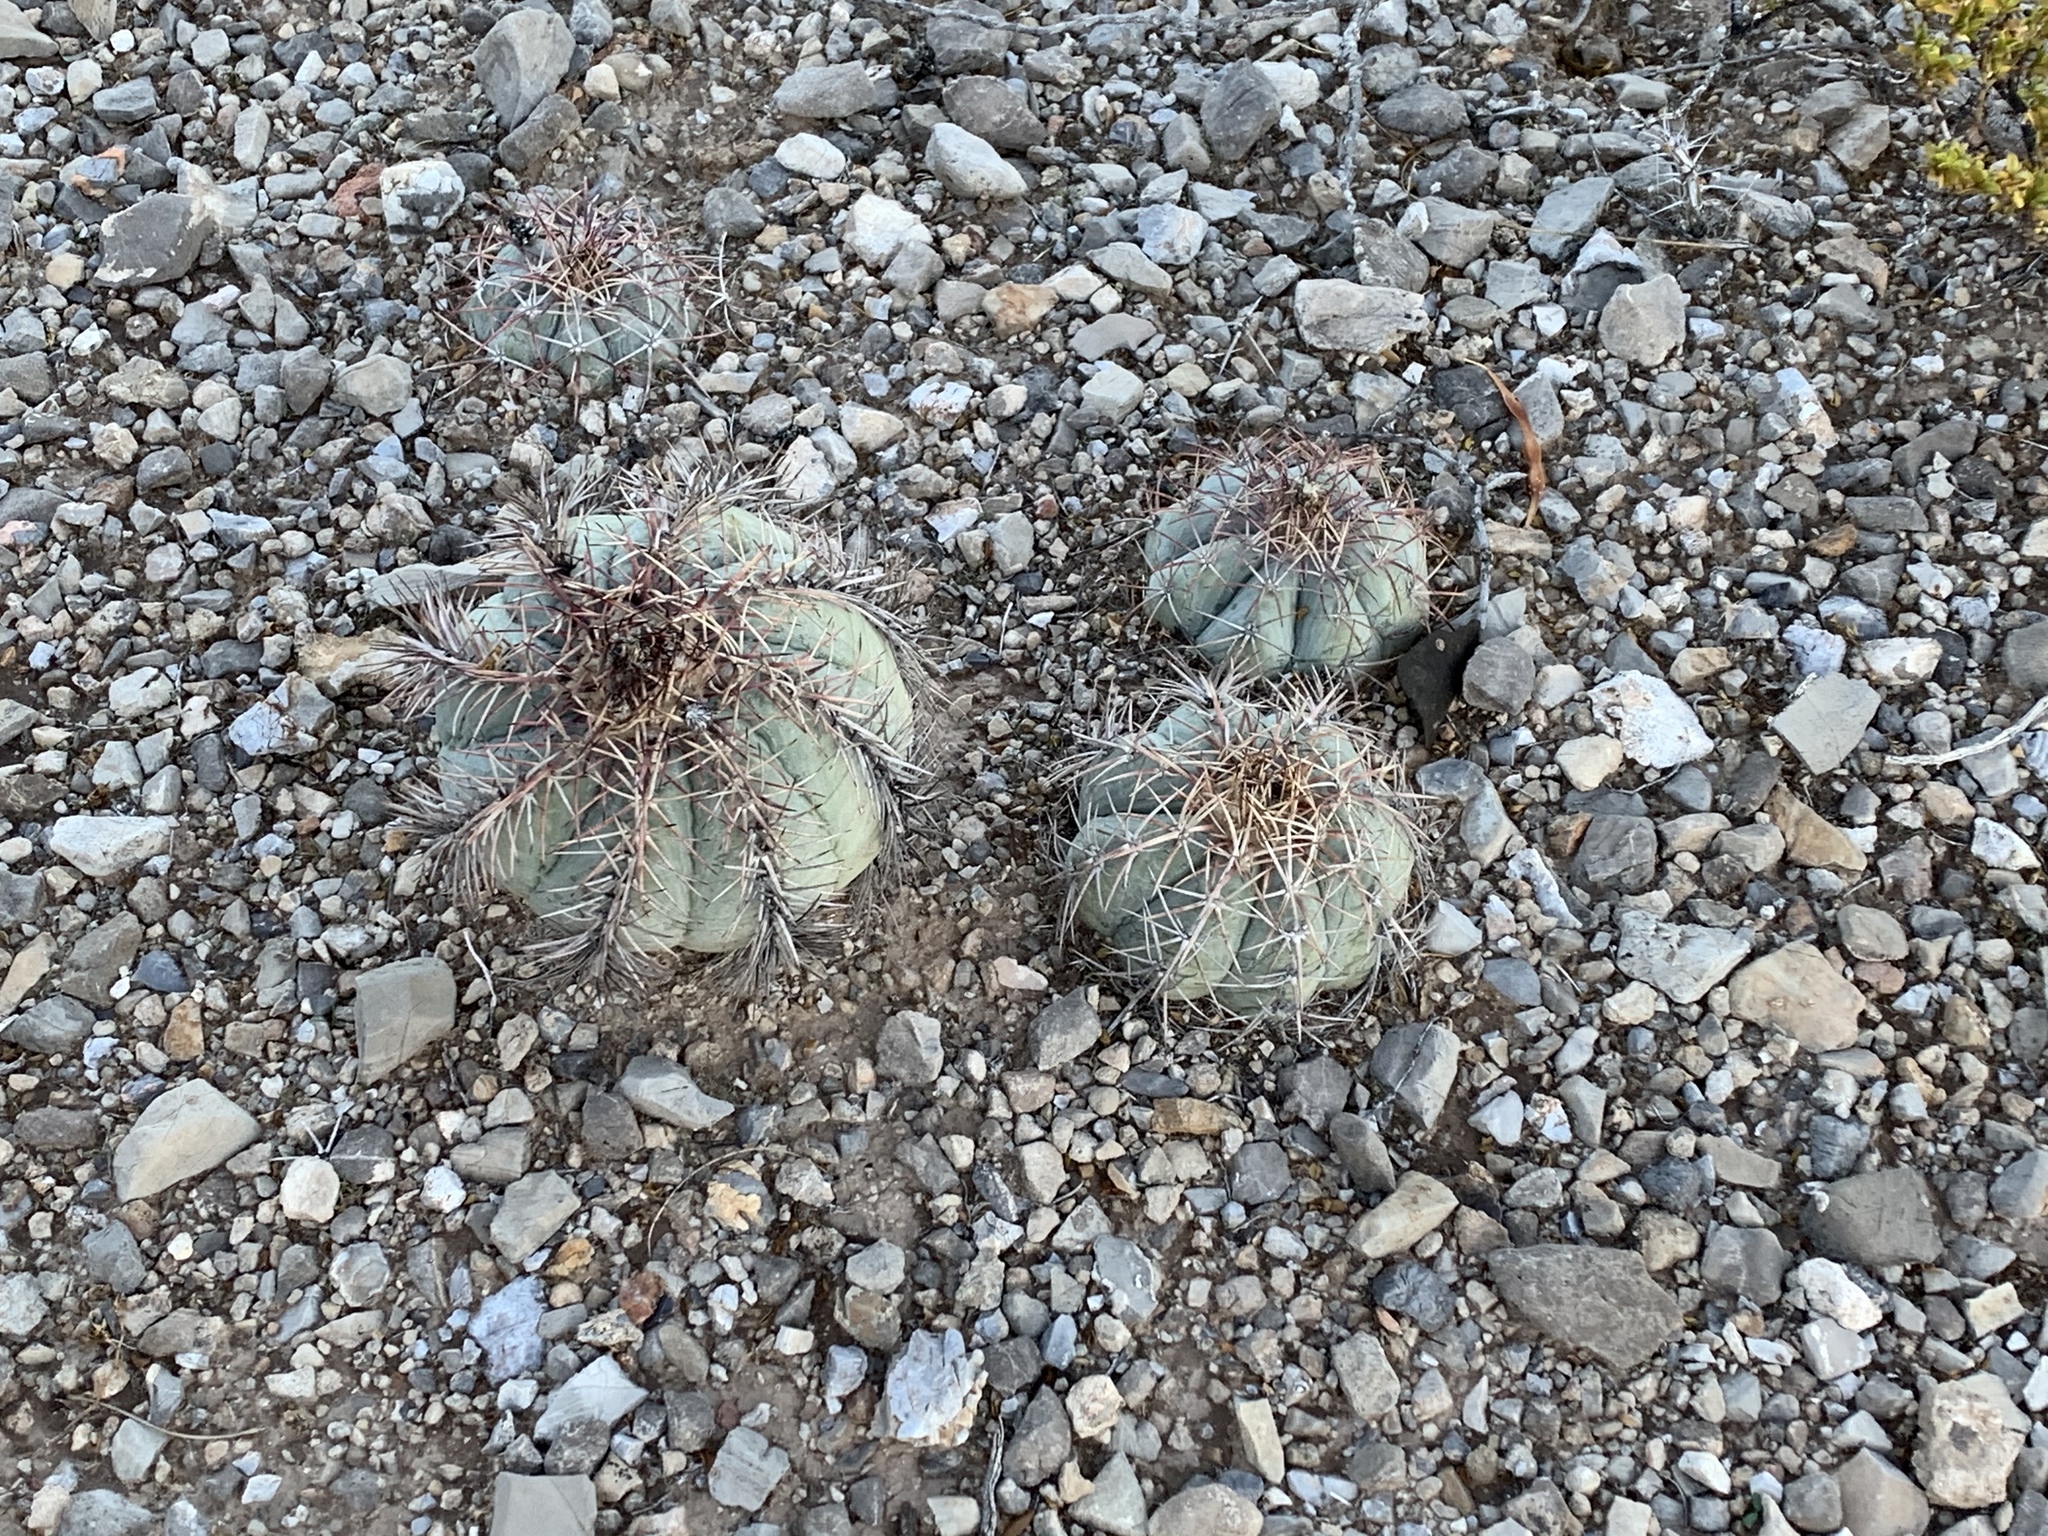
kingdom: Plantae
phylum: Tracheophyta
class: Magnoliopsida
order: Caryophyllales
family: Cactaceae
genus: Echinocactus
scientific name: Echinocactus horizonthalonius
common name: Devilshead
